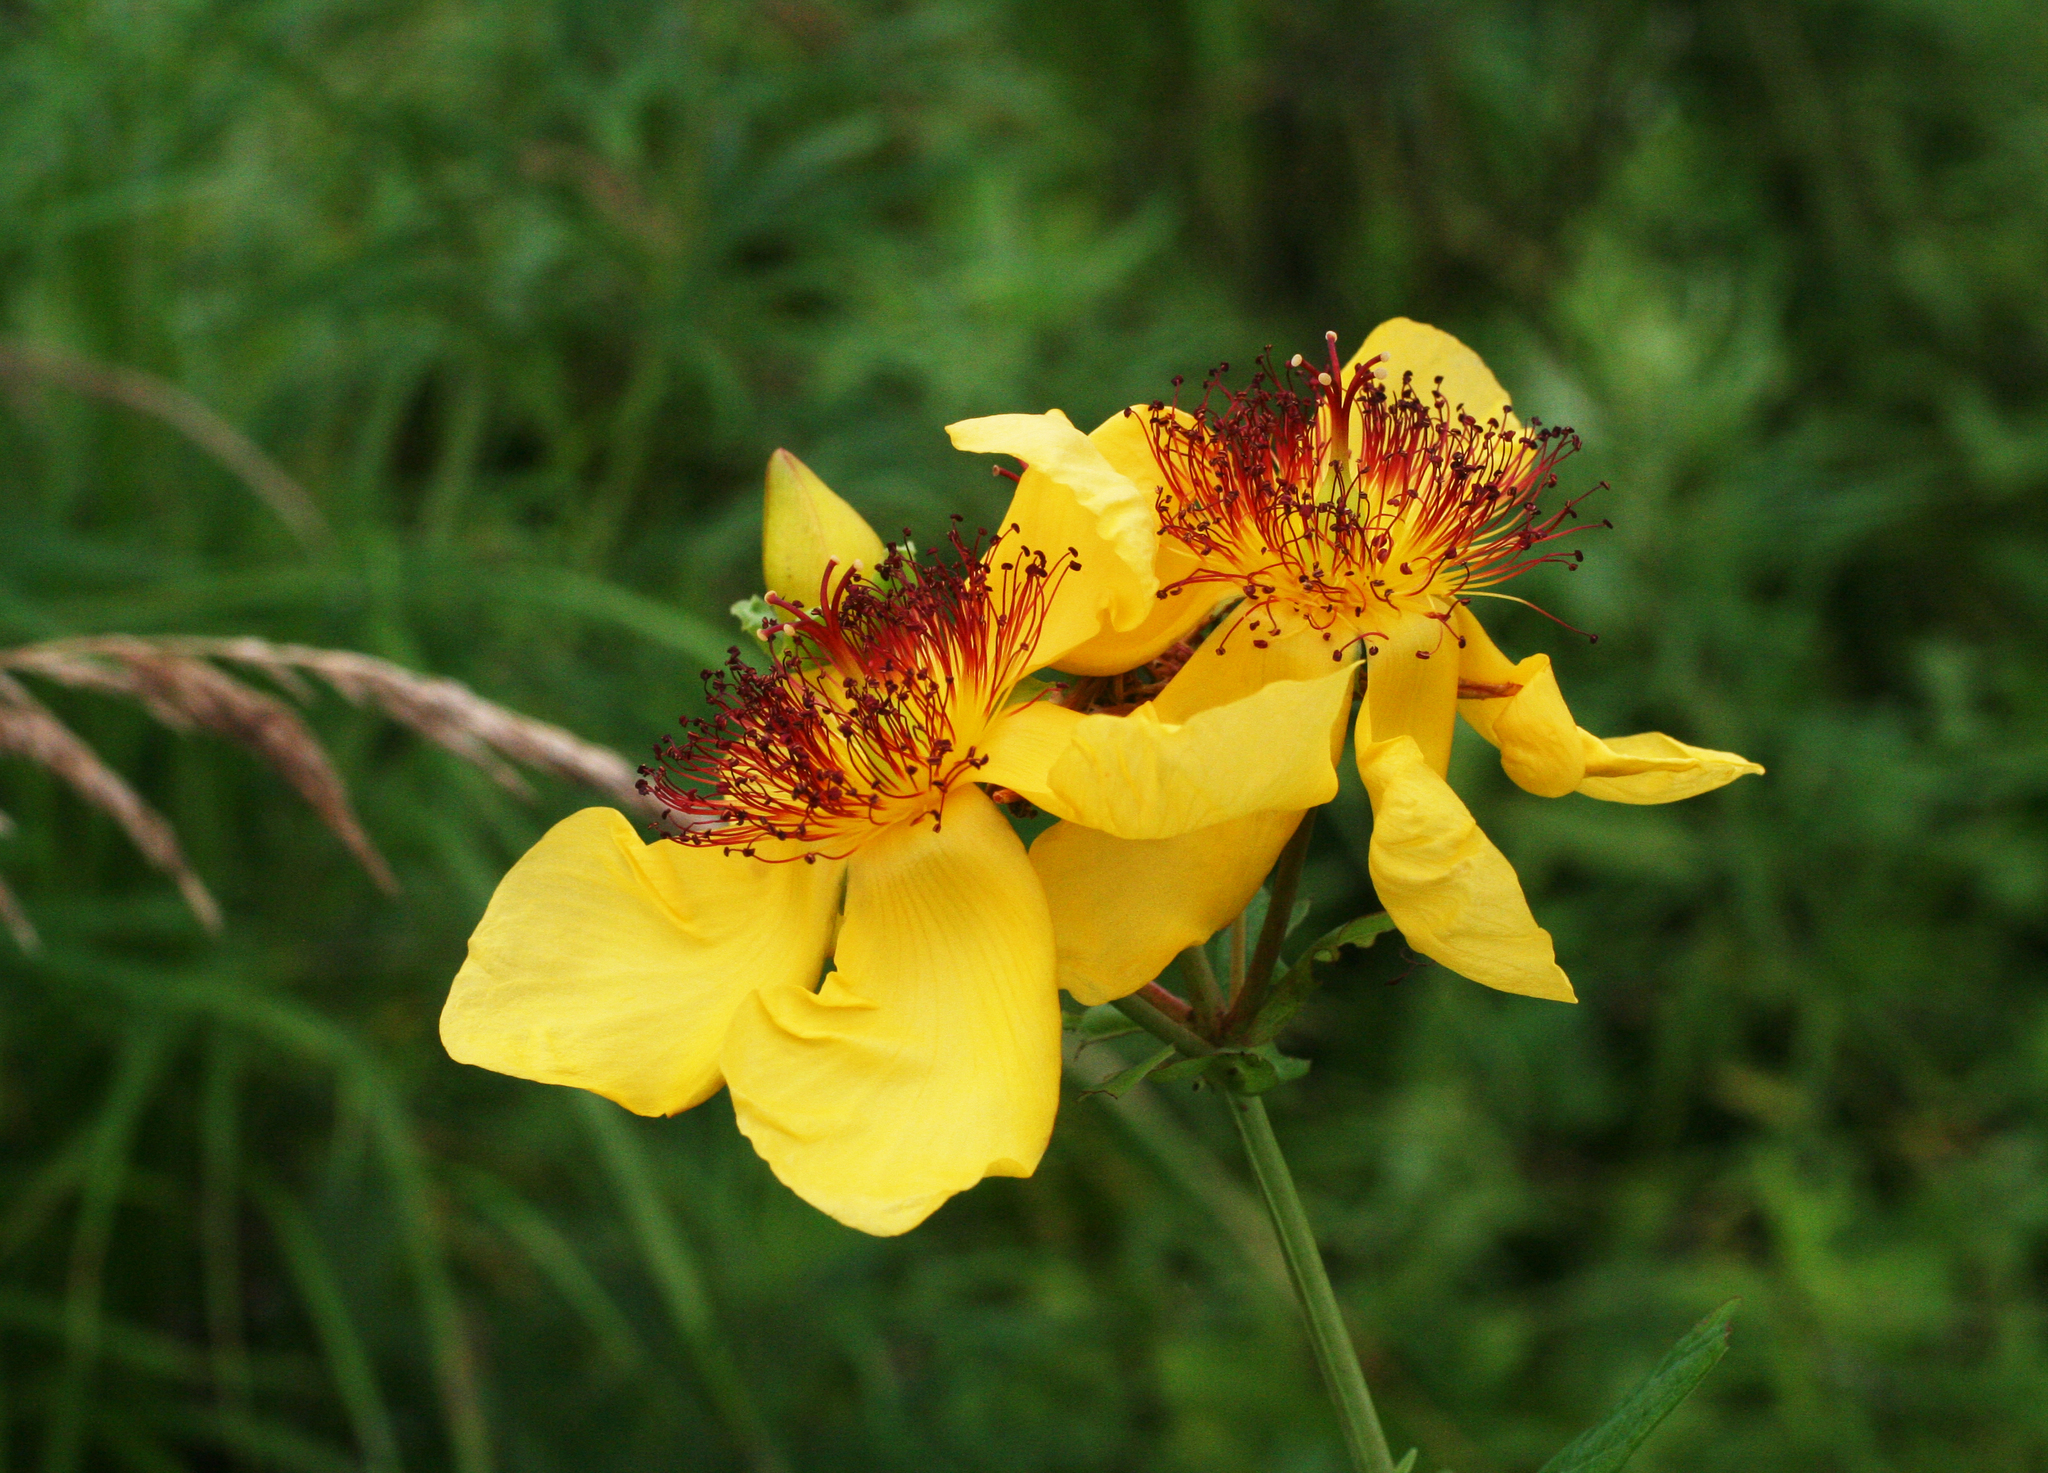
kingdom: Plantae
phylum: Tracheophyta
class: Magnoliopsida
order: Malpighiales
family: Hypericaceae
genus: Hypericum
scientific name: Hypericum ascyron
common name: Giant st. john's-wort
